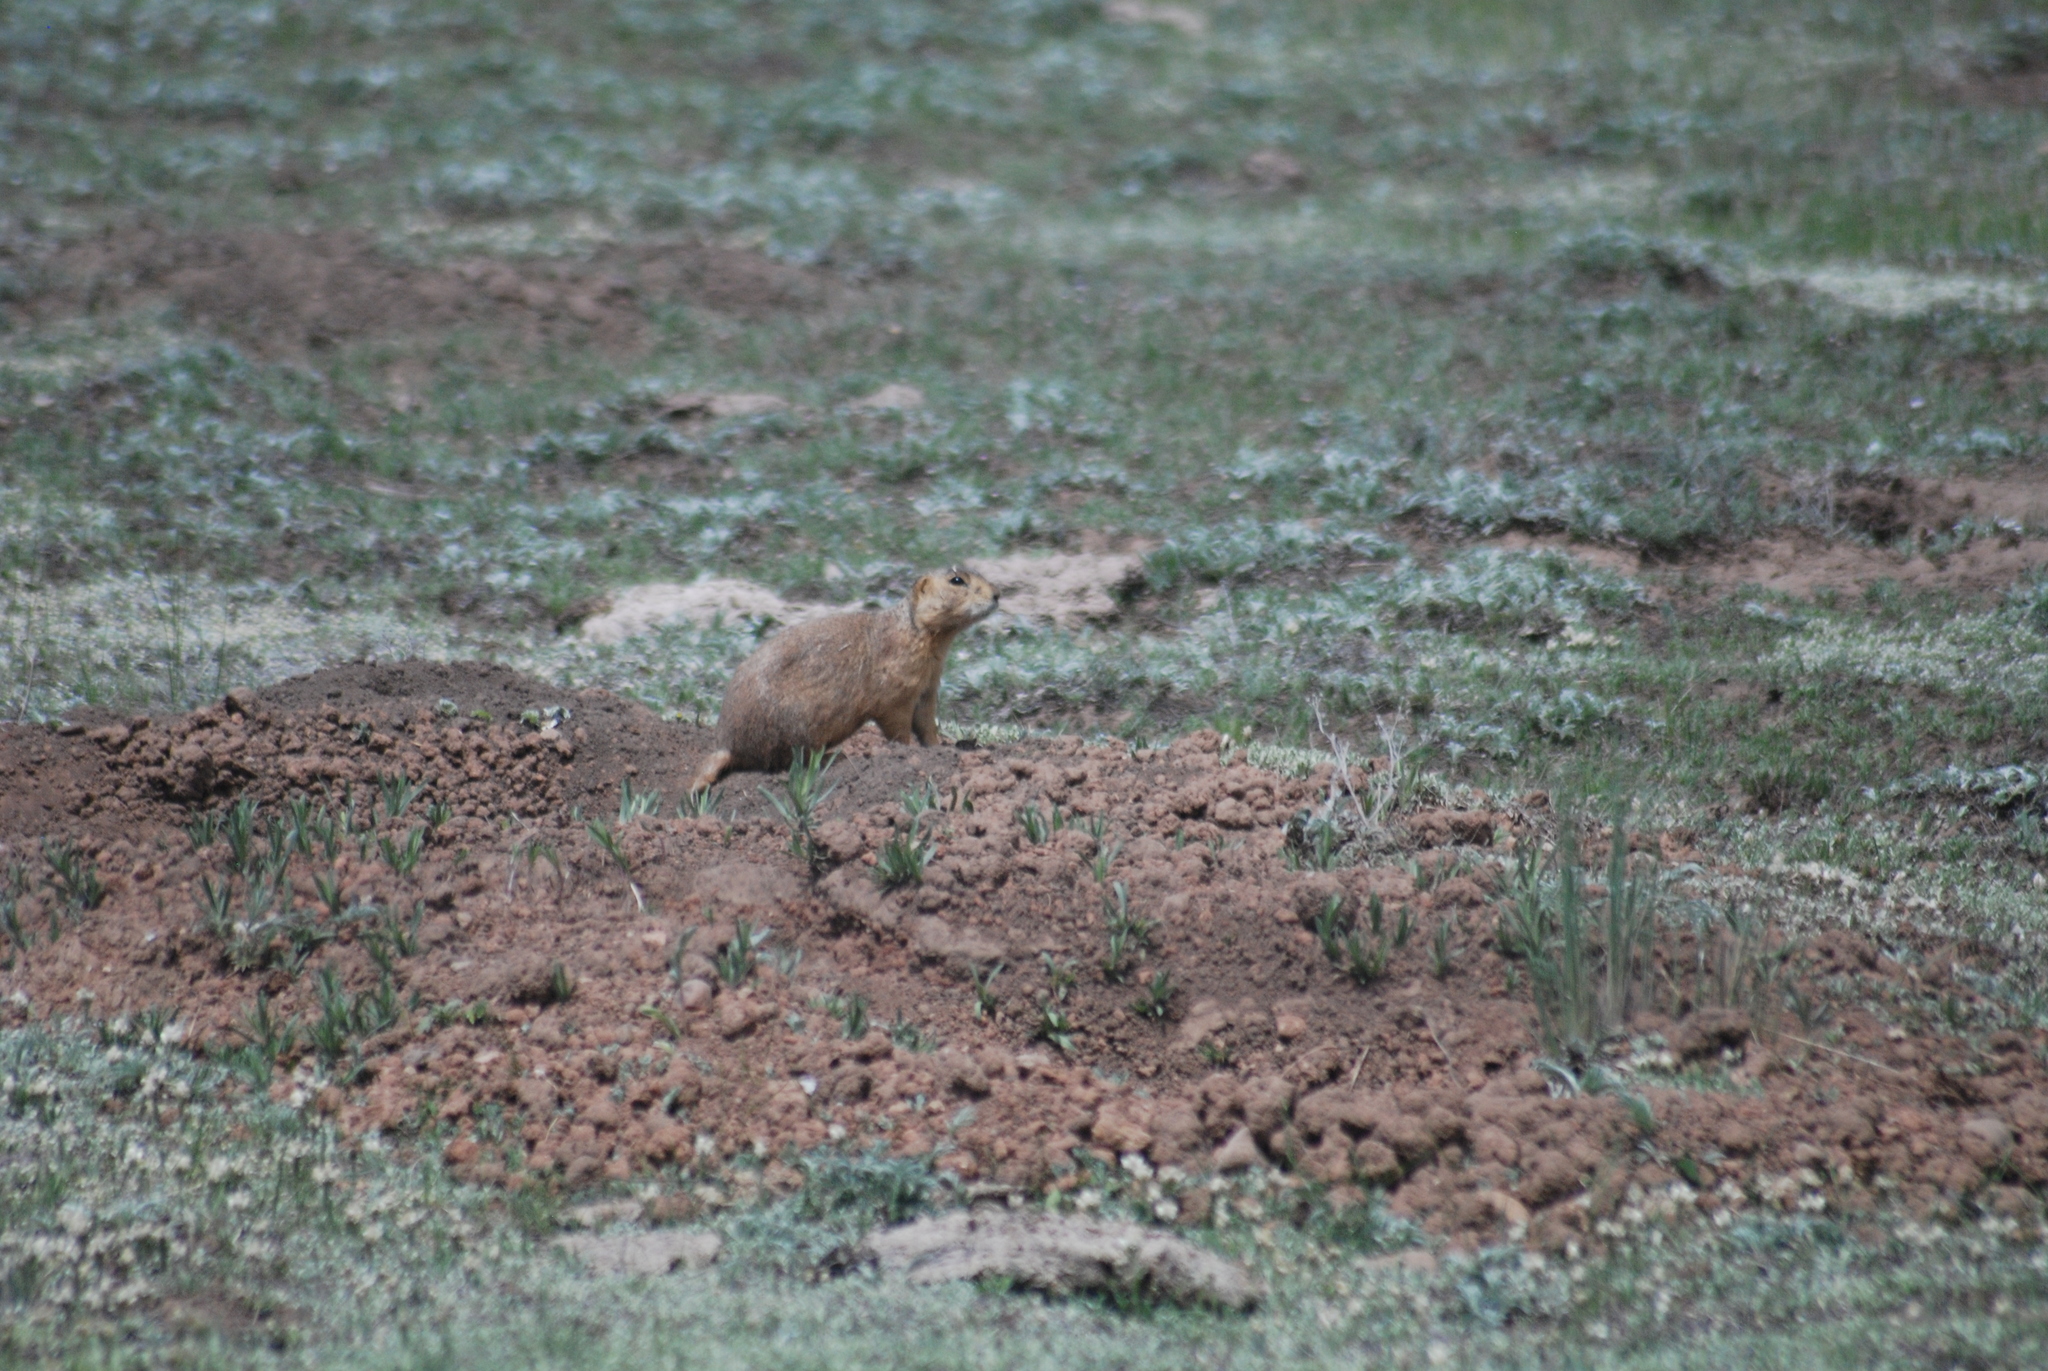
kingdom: Animalia
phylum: Chordata
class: Mammalia
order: Rodentia
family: Sciuridae
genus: Cynomys
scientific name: Cynomys gunnisoni
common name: Gunnison's prairie dog
